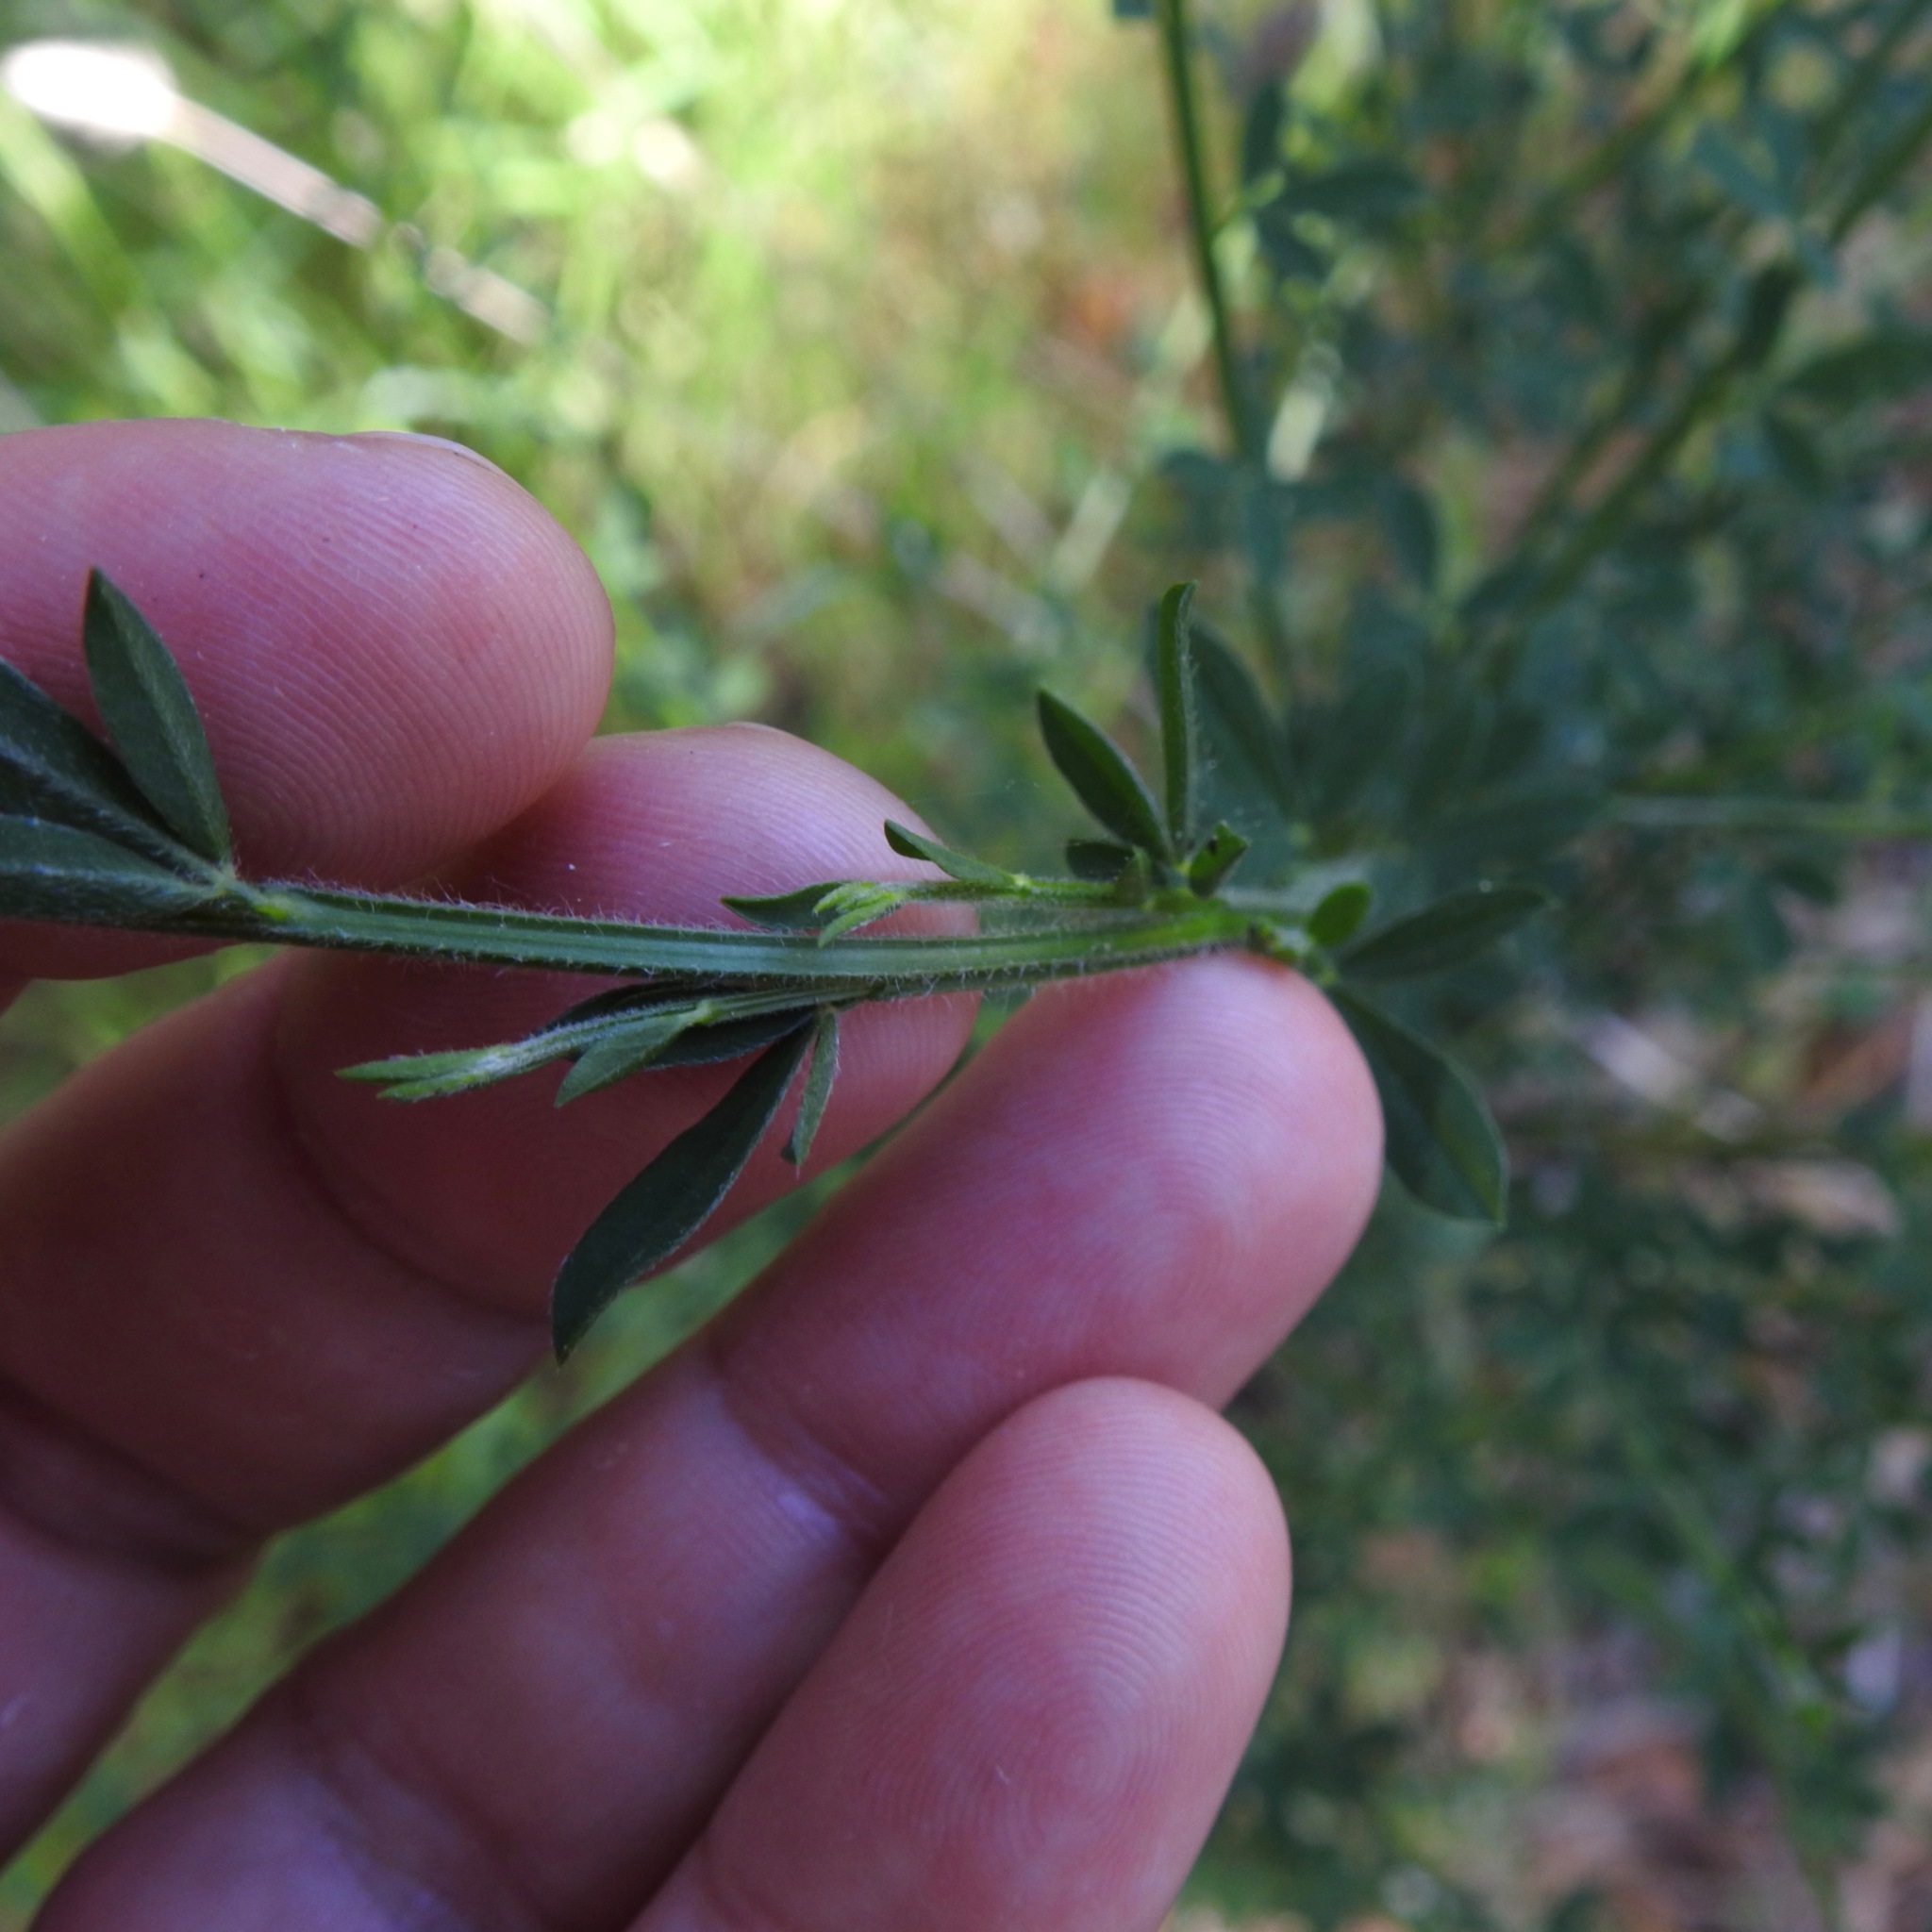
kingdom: Plantae
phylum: Tracheophyta
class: Magnoliopsida
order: Fabales
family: Fabaceae
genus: Cytisus
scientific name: Cytisus scoparius
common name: Scotch broom
